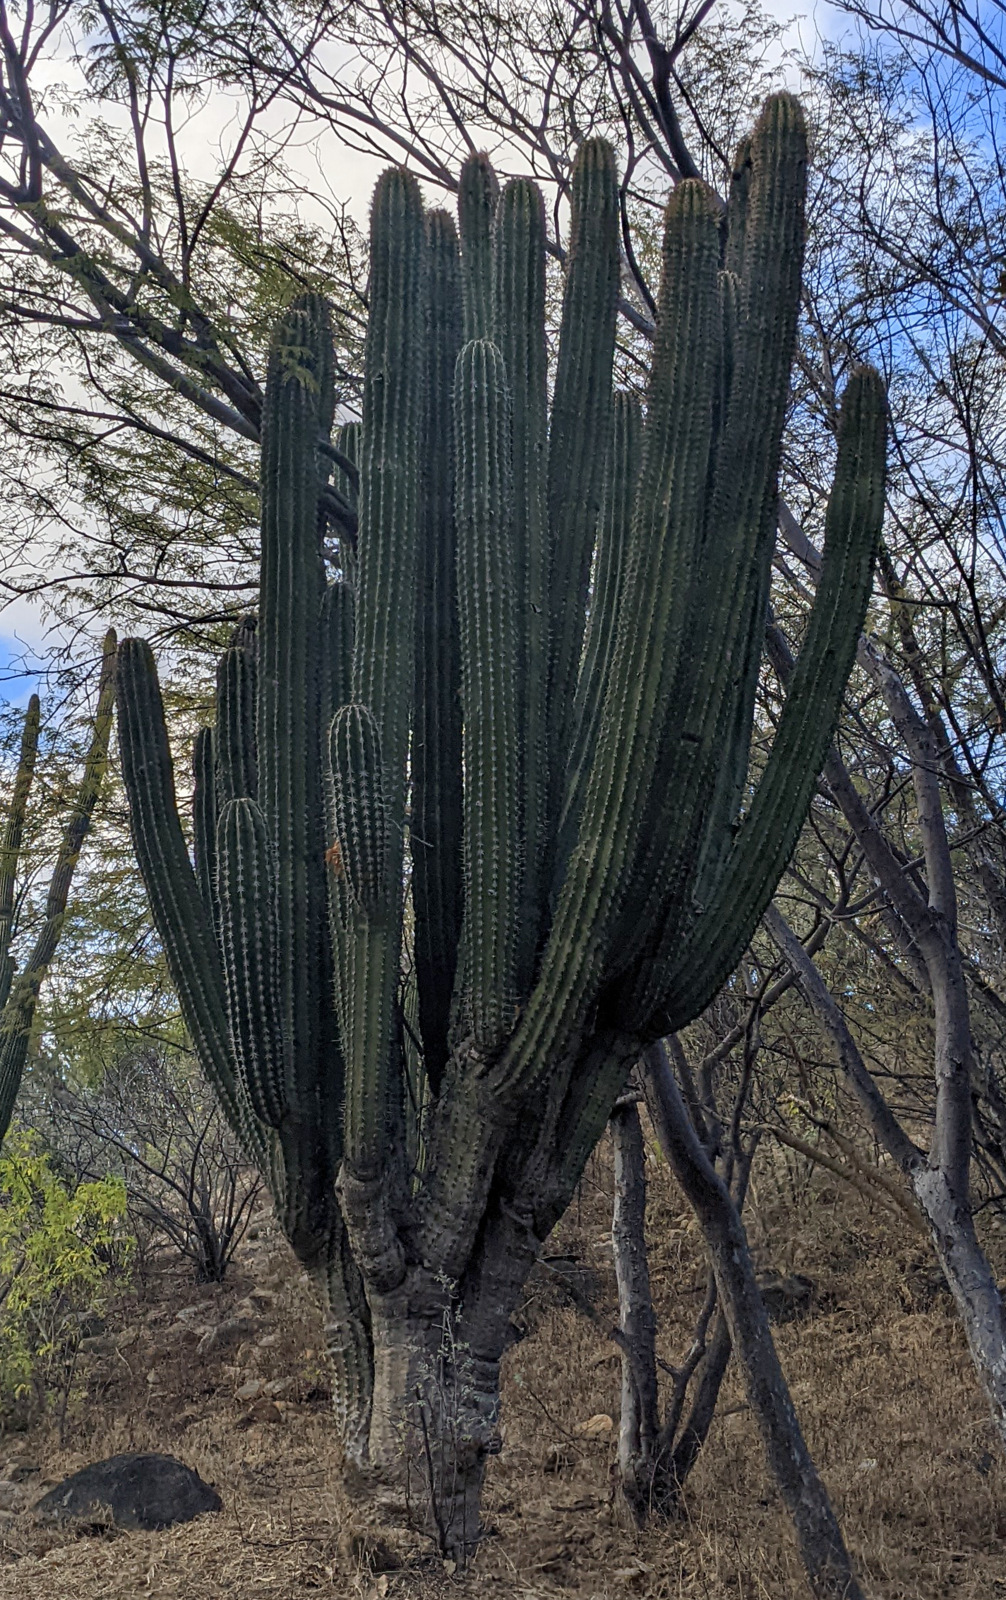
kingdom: Plantae
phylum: Tracheophyta
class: Magnoliopsida
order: Caryophyllales
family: Cactaceae
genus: Pachycereus
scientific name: Pachycereus pecten-aboriginum
